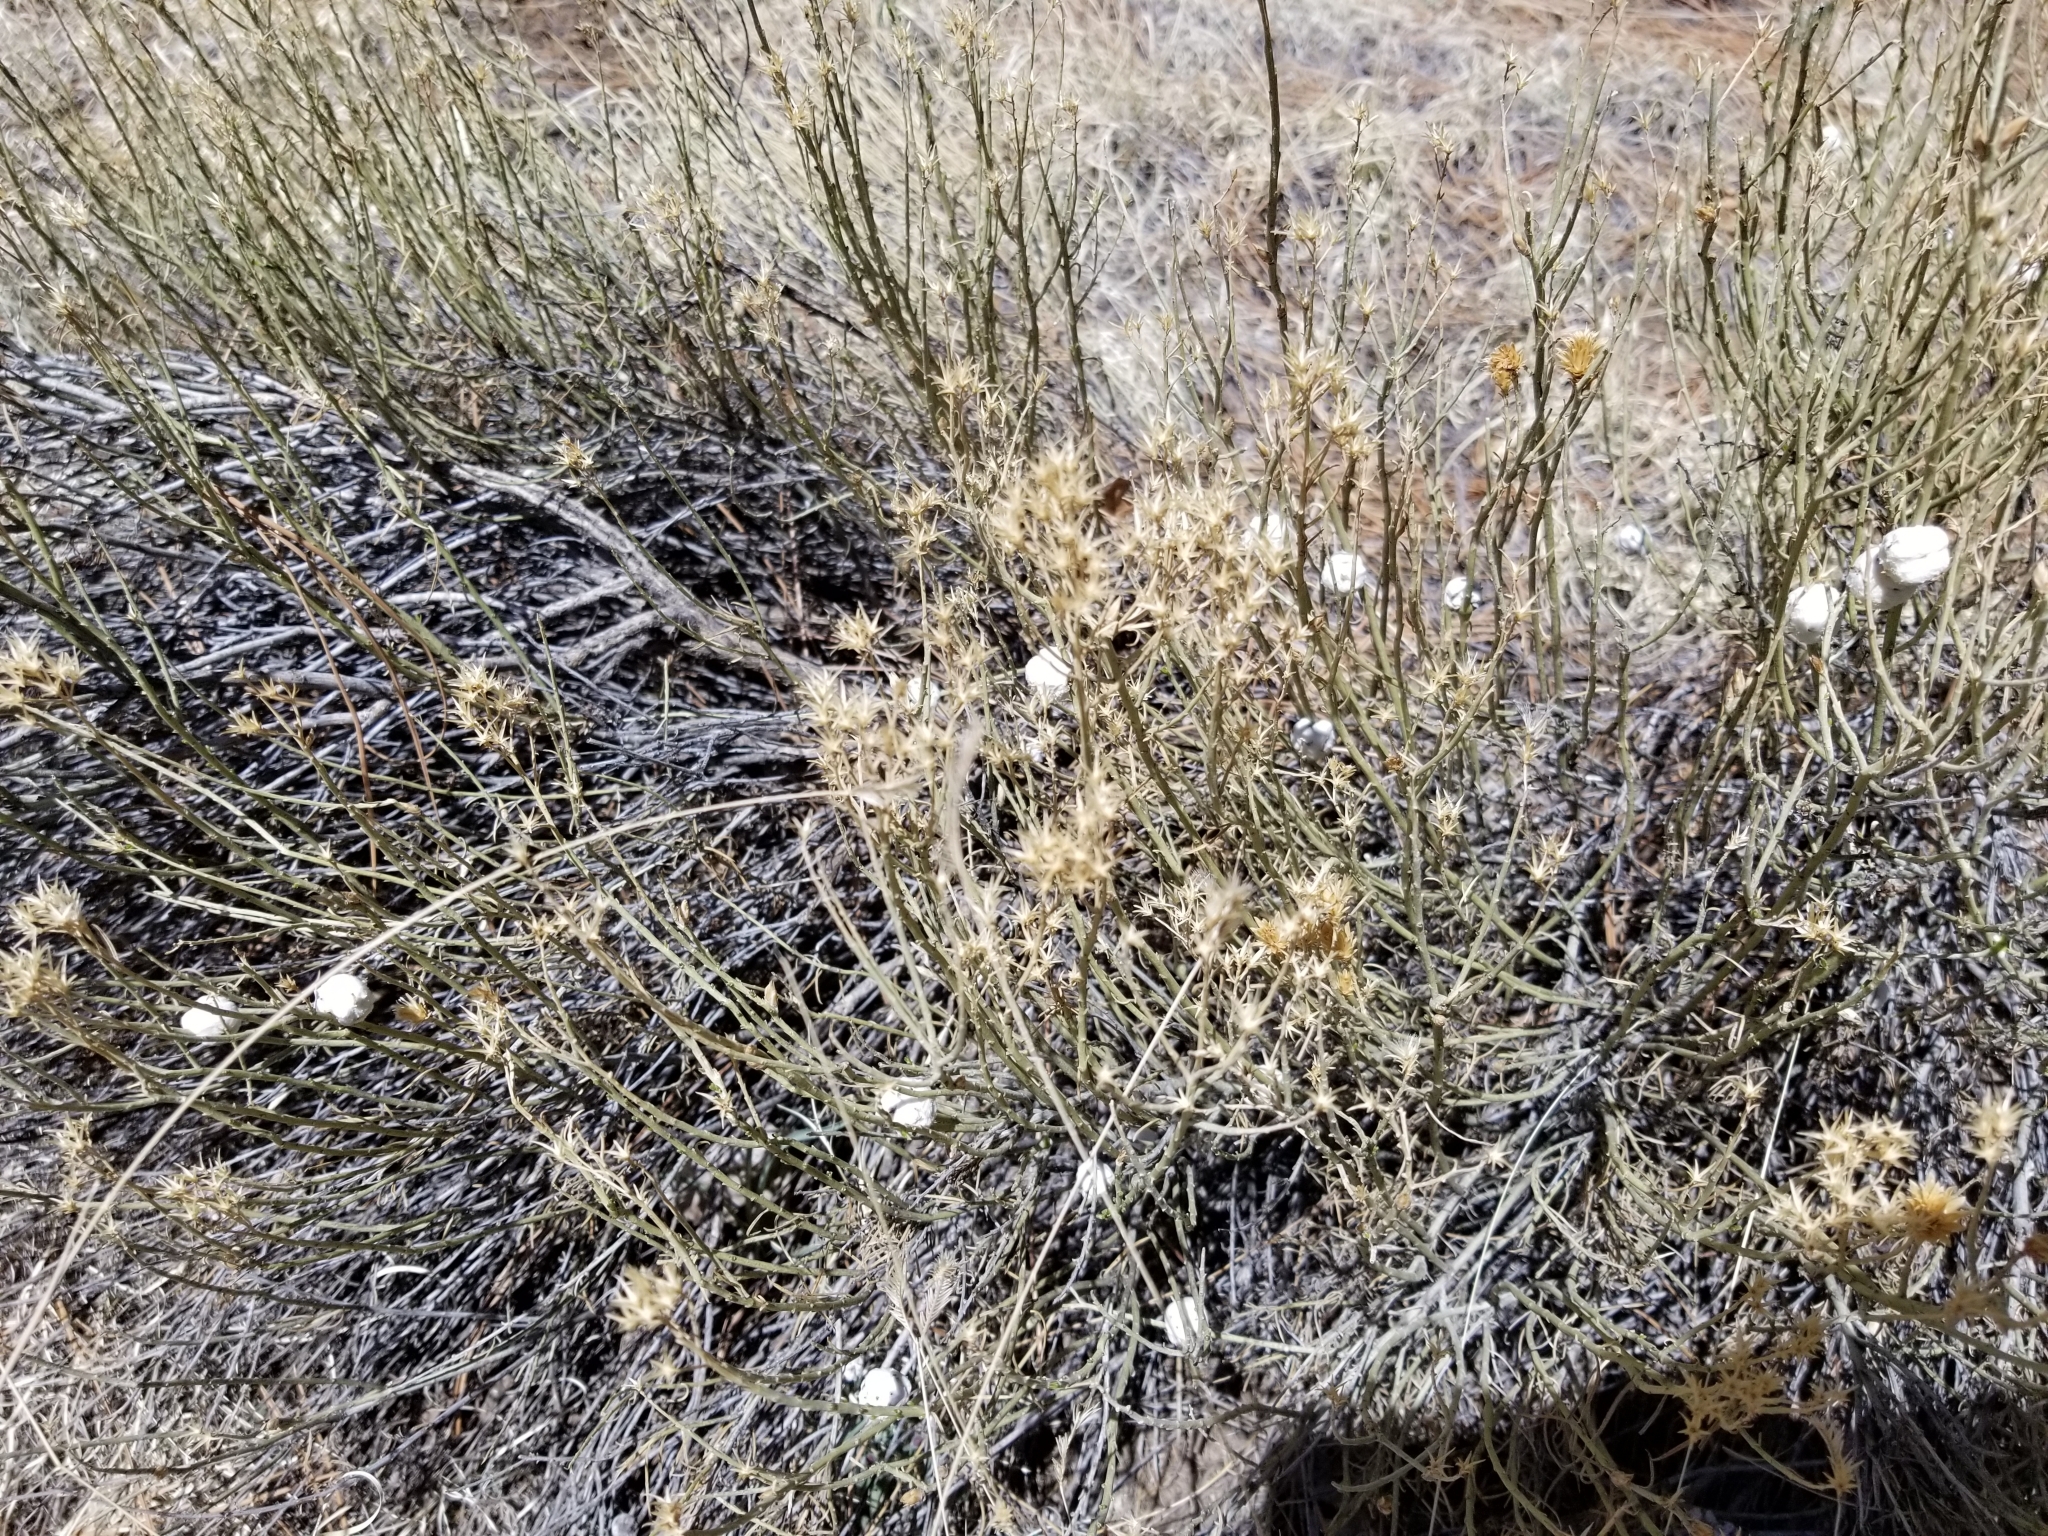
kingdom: Animalia
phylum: Arthropoda
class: Insecta
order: Diptera
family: Tephritidae
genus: Aciurina
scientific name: Aciurina bigeloviae
